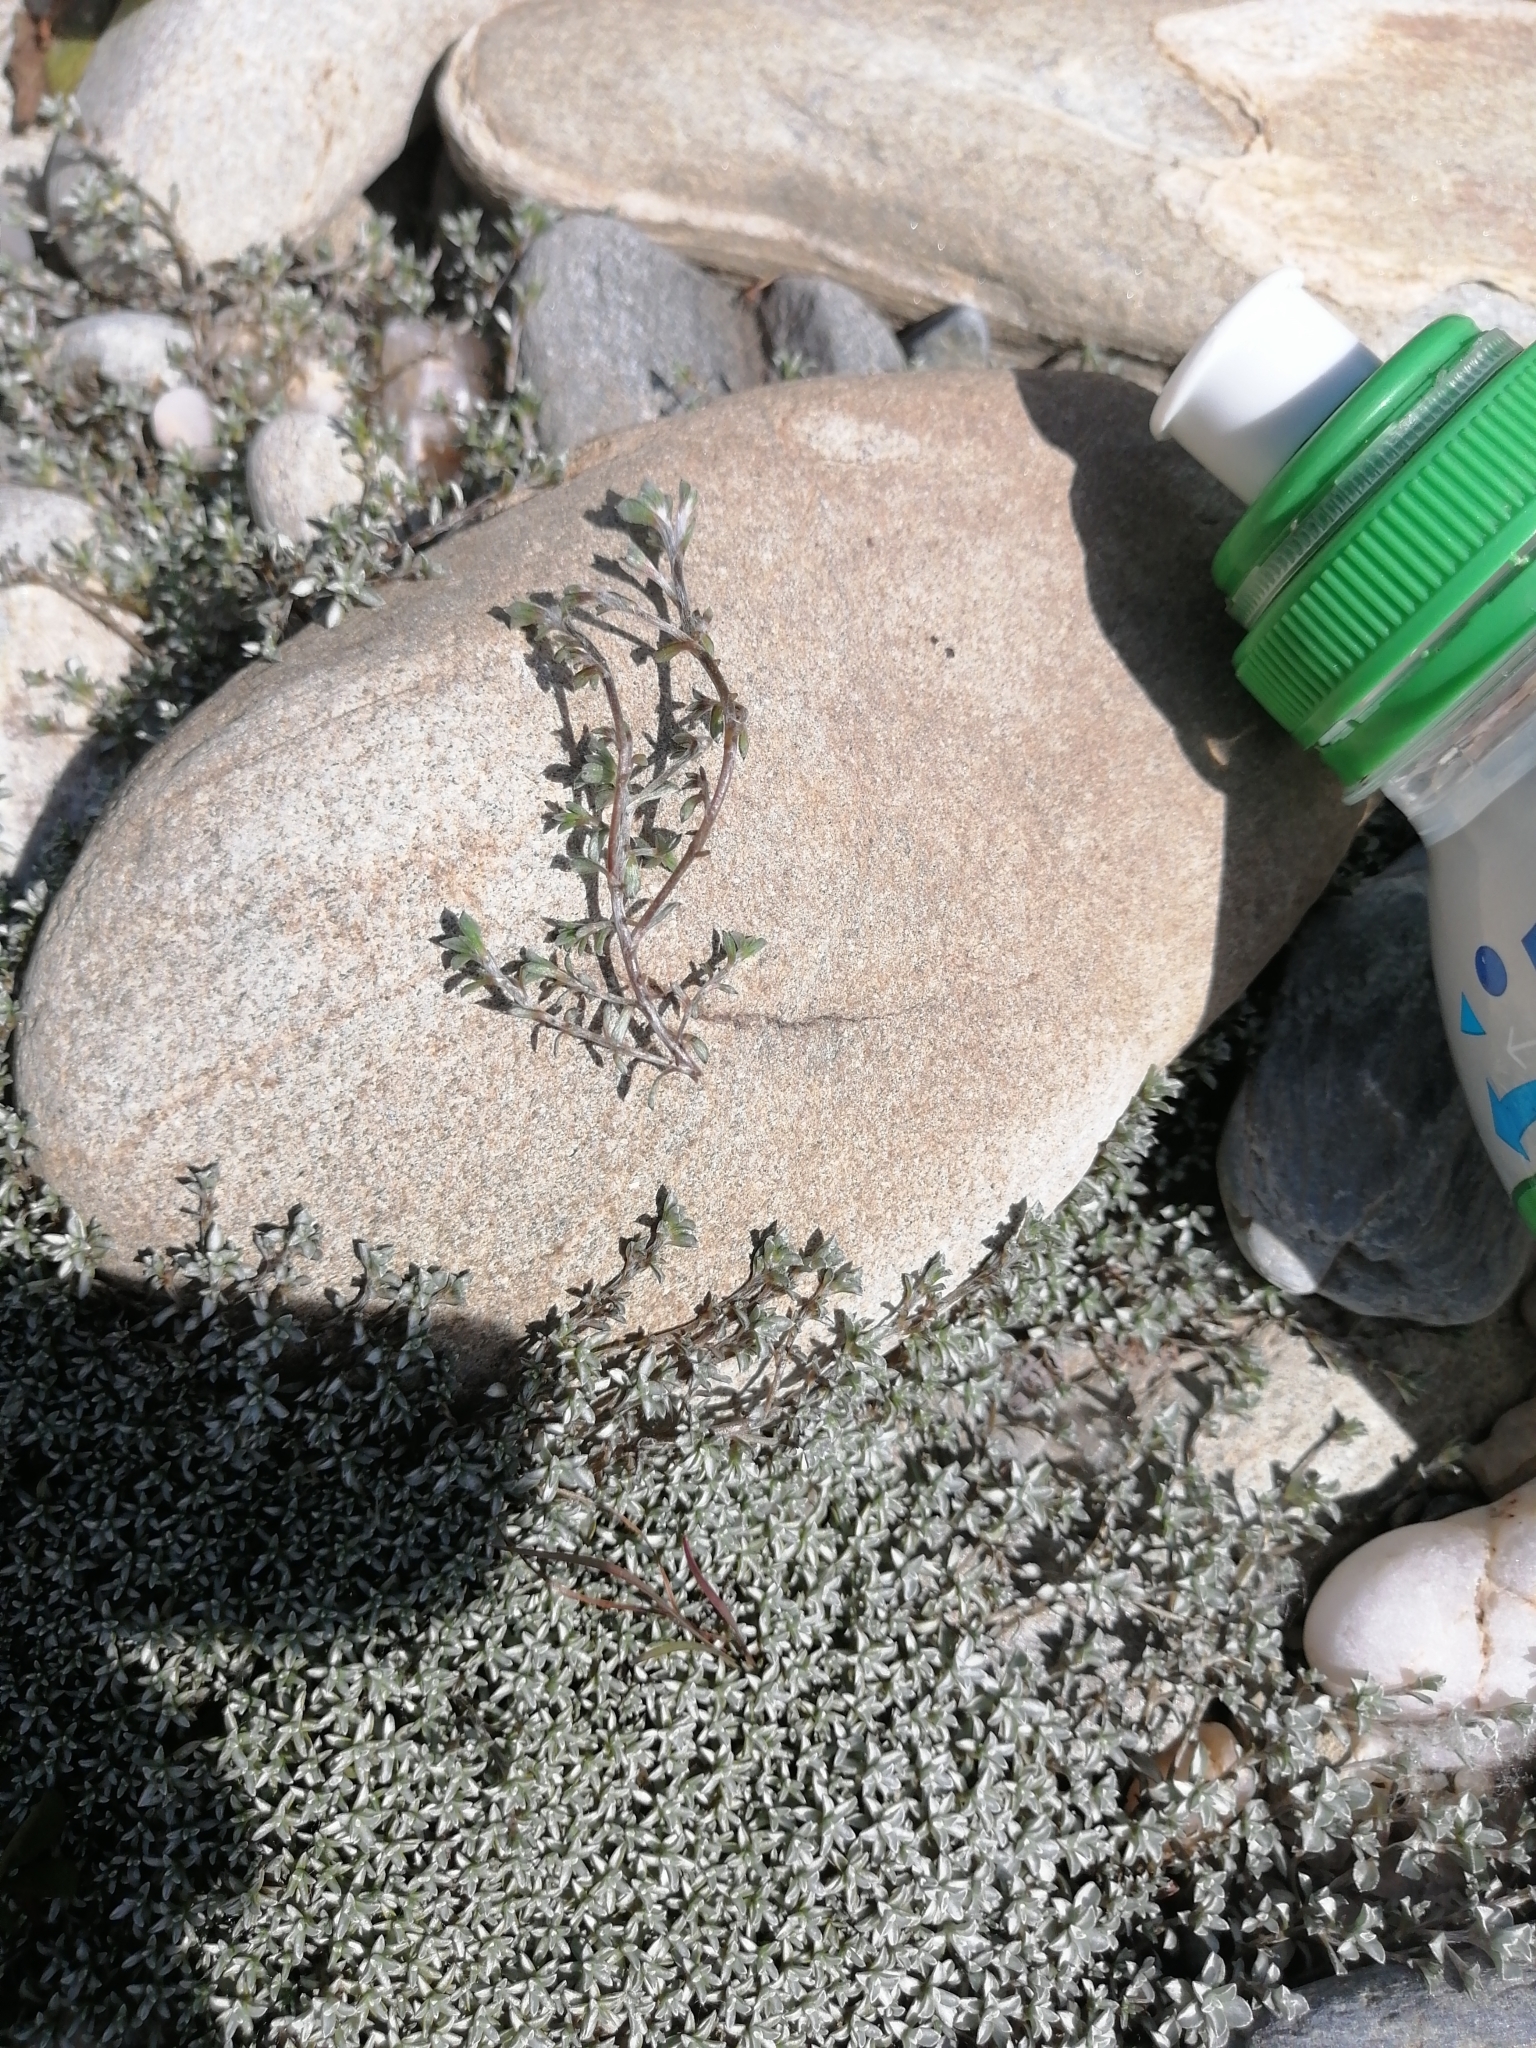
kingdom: Plantae
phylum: Tracheophyta
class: Magnoliopsida
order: Asterales
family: Asteraceae
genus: Raoulia
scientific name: Raoulia tenuicaulis
